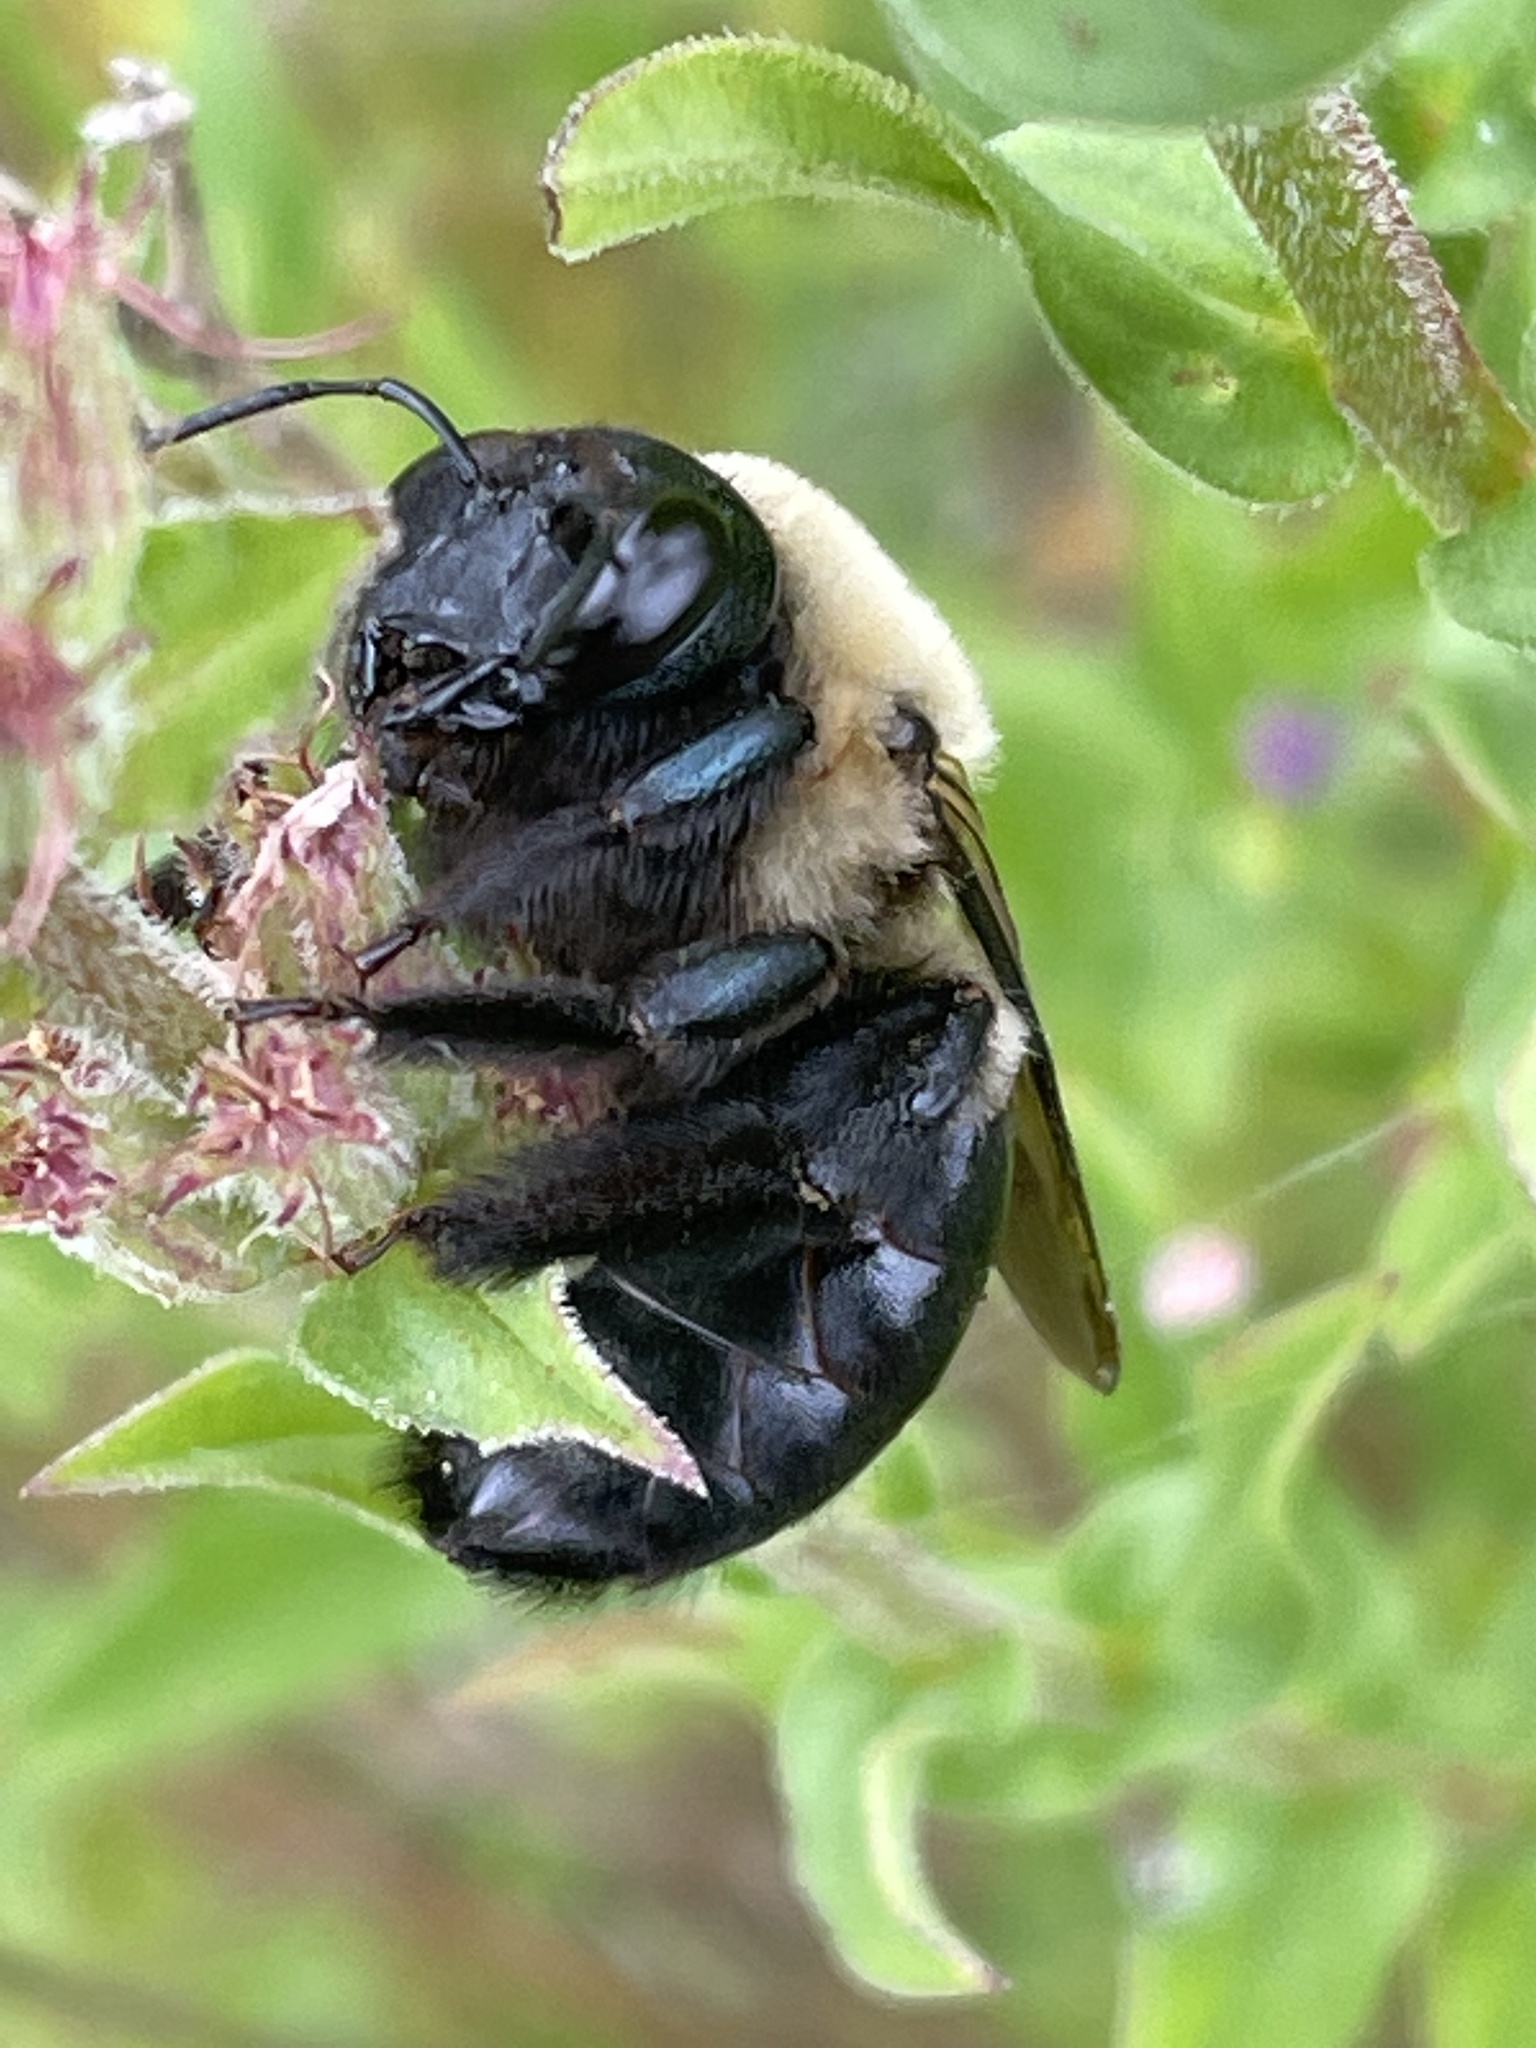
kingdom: Animalia
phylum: Arthropoda
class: Insecta
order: Hymenoptera
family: Apidae
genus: Xylocopa
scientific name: Xylocopa virginica
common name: Carpenter bee
